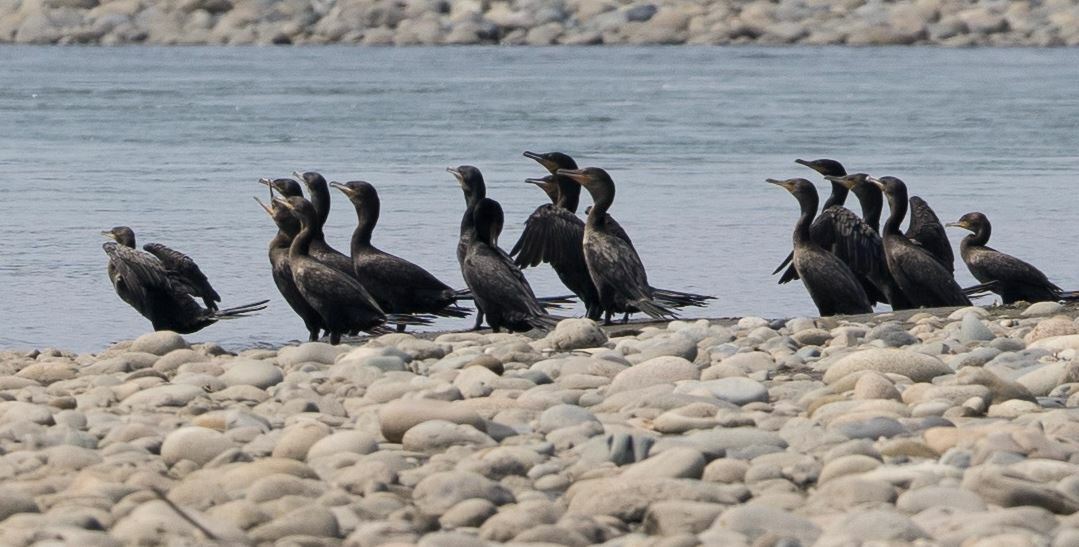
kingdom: Animalia
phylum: Chordata
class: Aves
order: Suliformes
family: Phalacrocoracidae
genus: Phalacrocorax
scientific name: Phalacrocorax brasilianus
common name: Neotropic cormorant
